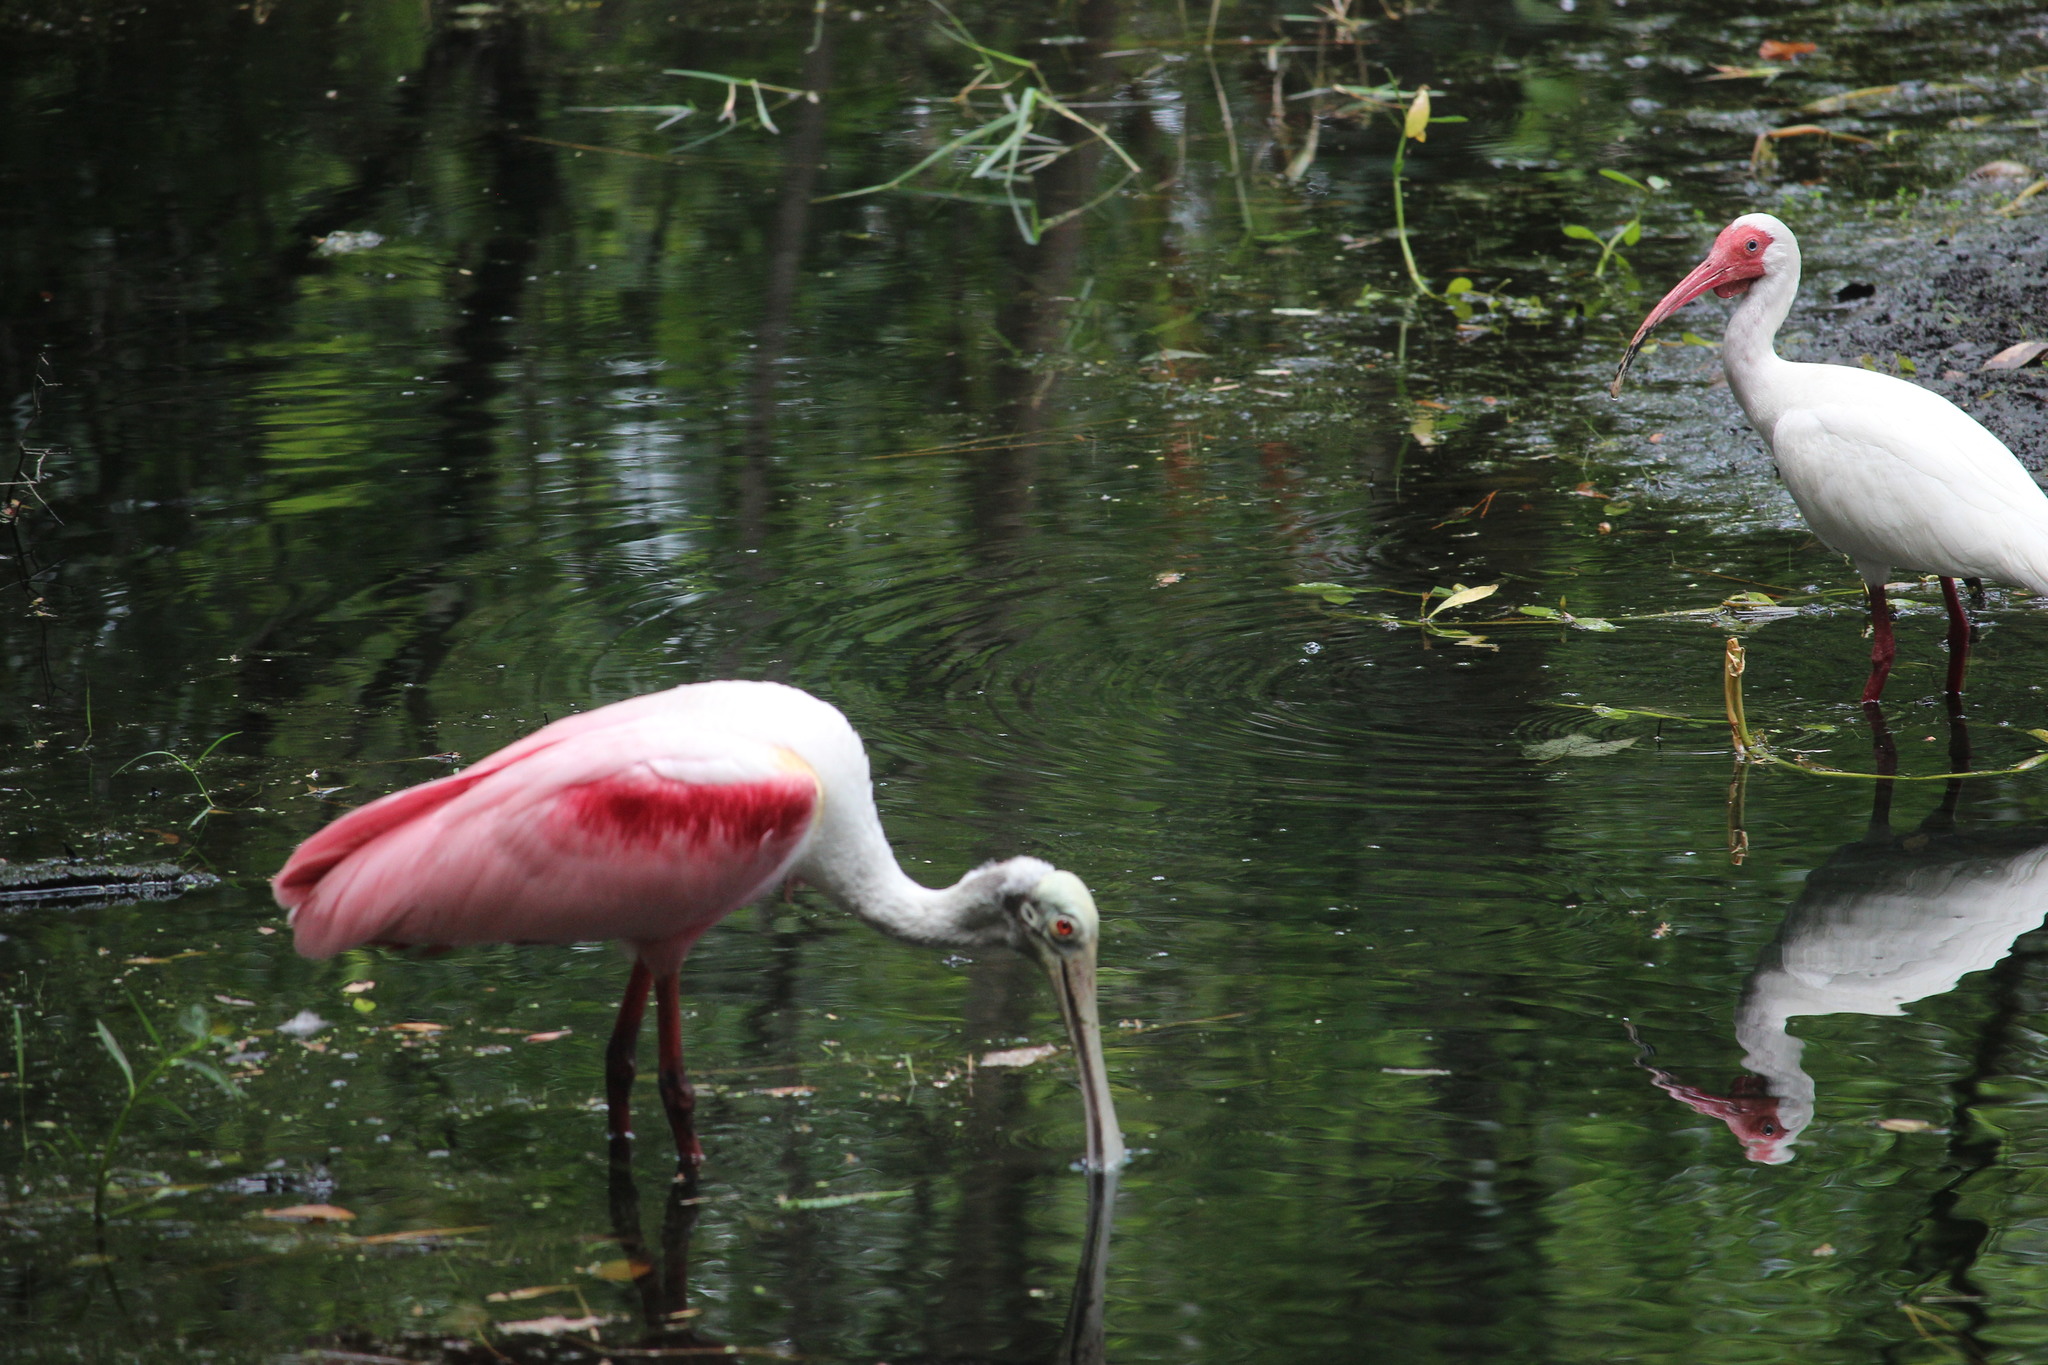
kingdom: Animalia
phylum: Chordata
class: Aves
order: Pelecaniformes
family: Threskiornithidae
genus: Platalea
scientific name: Platalea ajaja
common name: Roseate spoonbill
